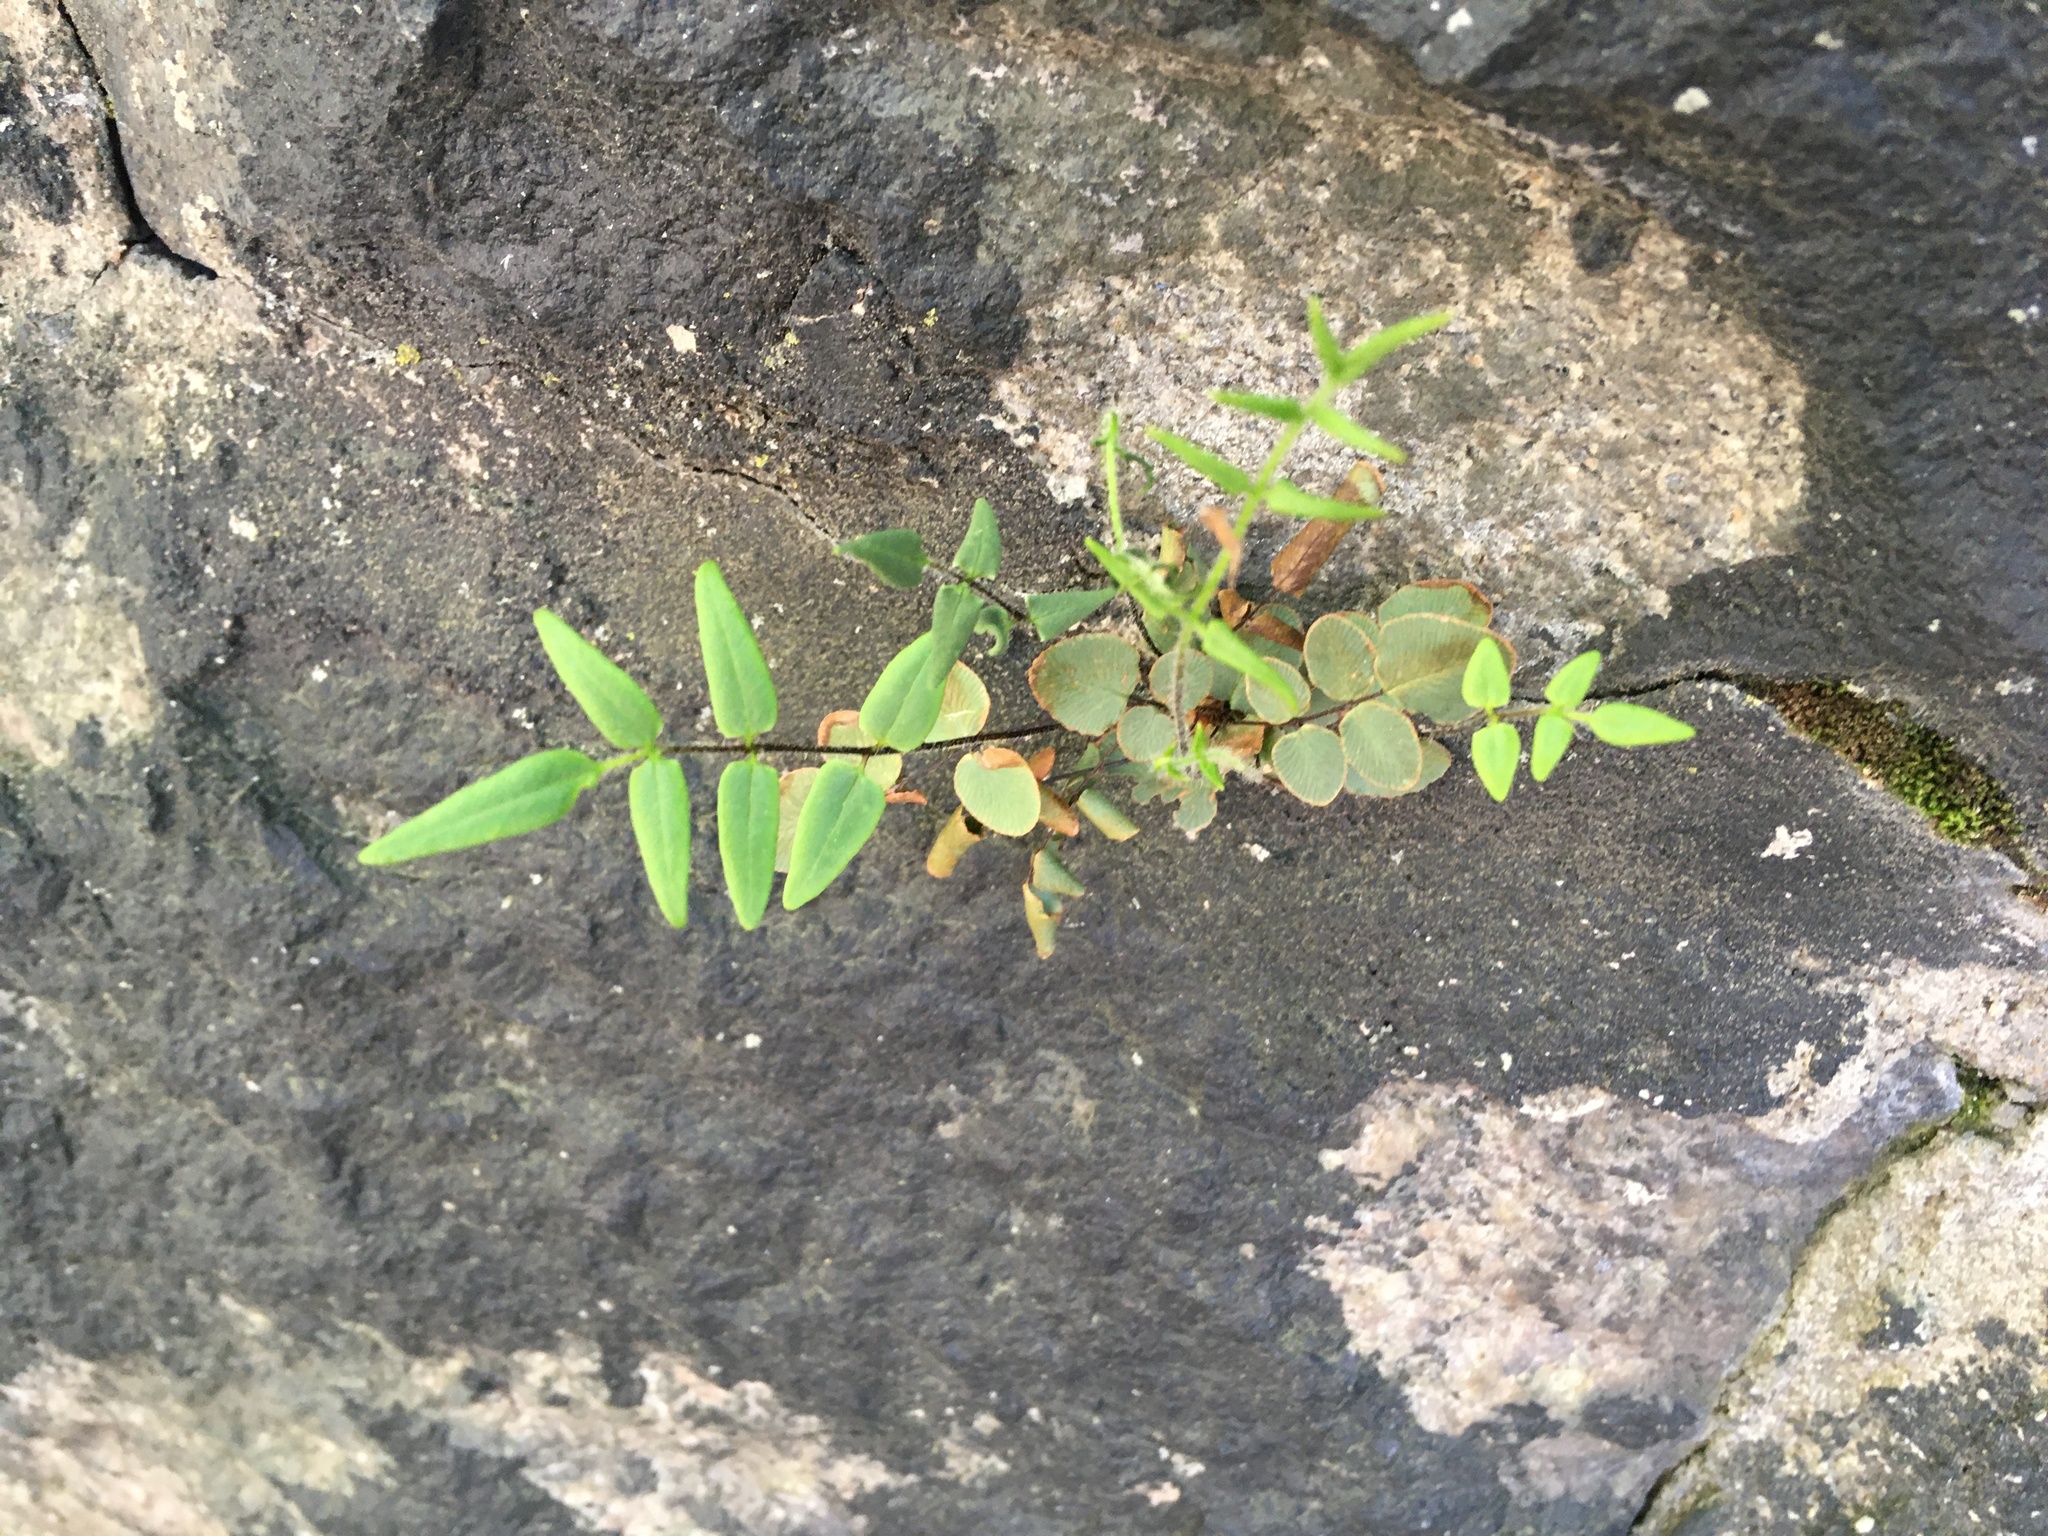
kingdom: Plantae
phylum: Tracheophyta
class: Polypodiopsida
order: Polypodiales
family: Pteridaceae
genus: Pellaea
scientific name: Pellaea atropurpurea
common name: Hairy cliffbrake
